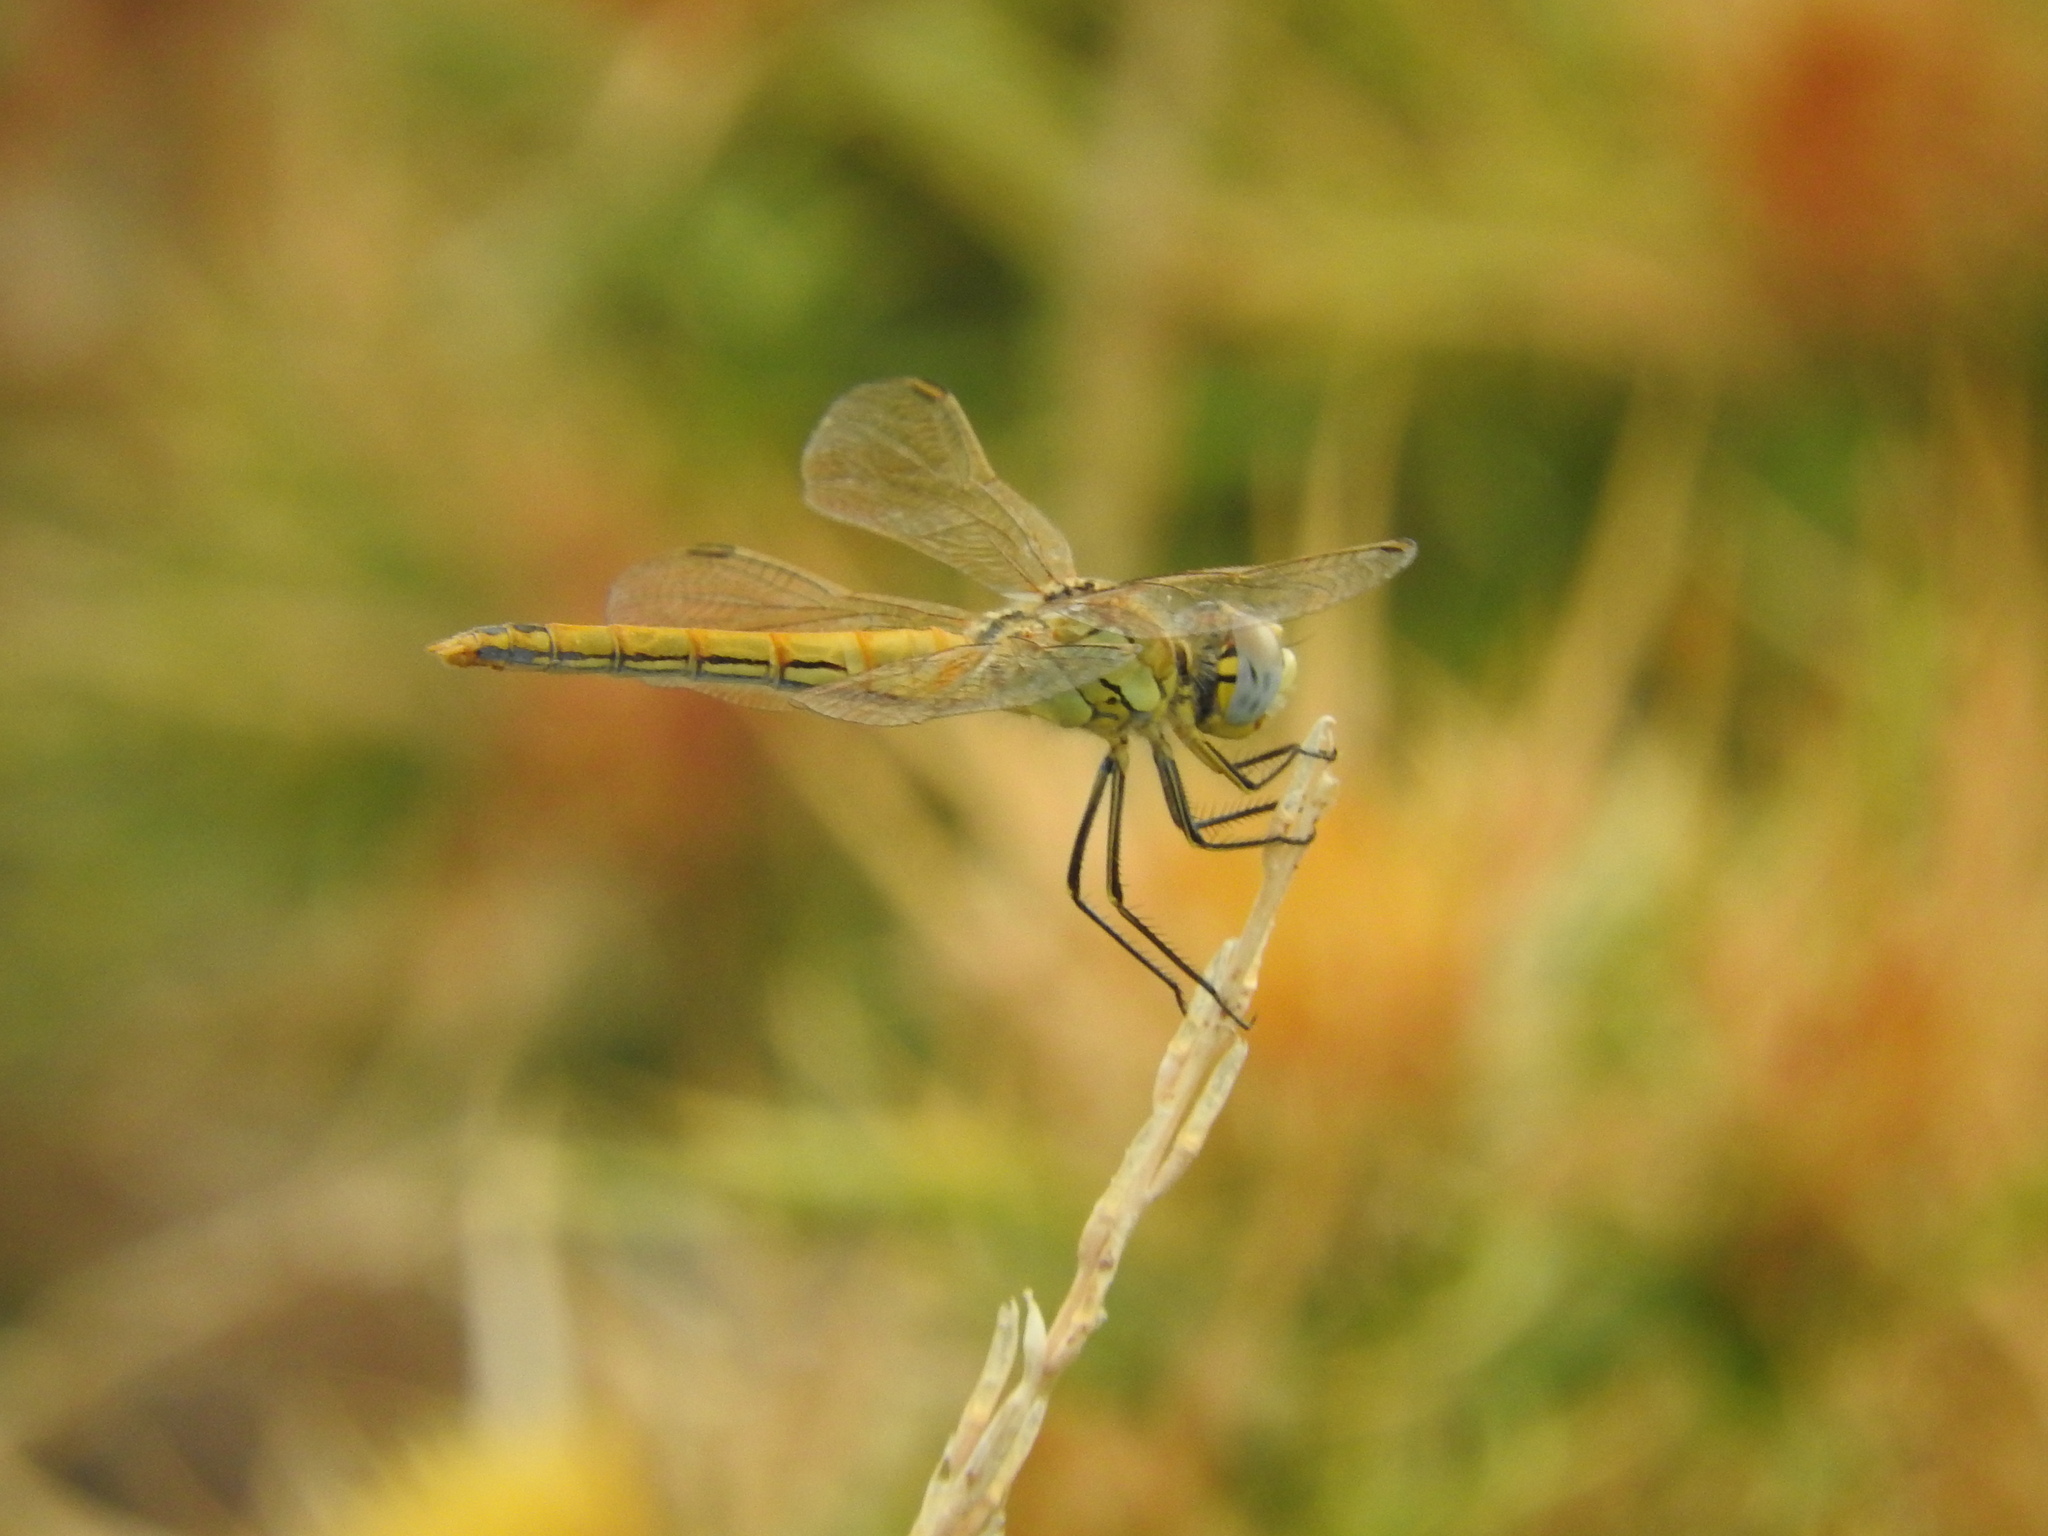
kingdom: Animalia
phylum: Arthropoda
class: Insecta
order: Odonata
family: Libellulidae
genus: Sympetrum
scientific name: Sympetrum fonscolombii
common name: Red-veined darter
